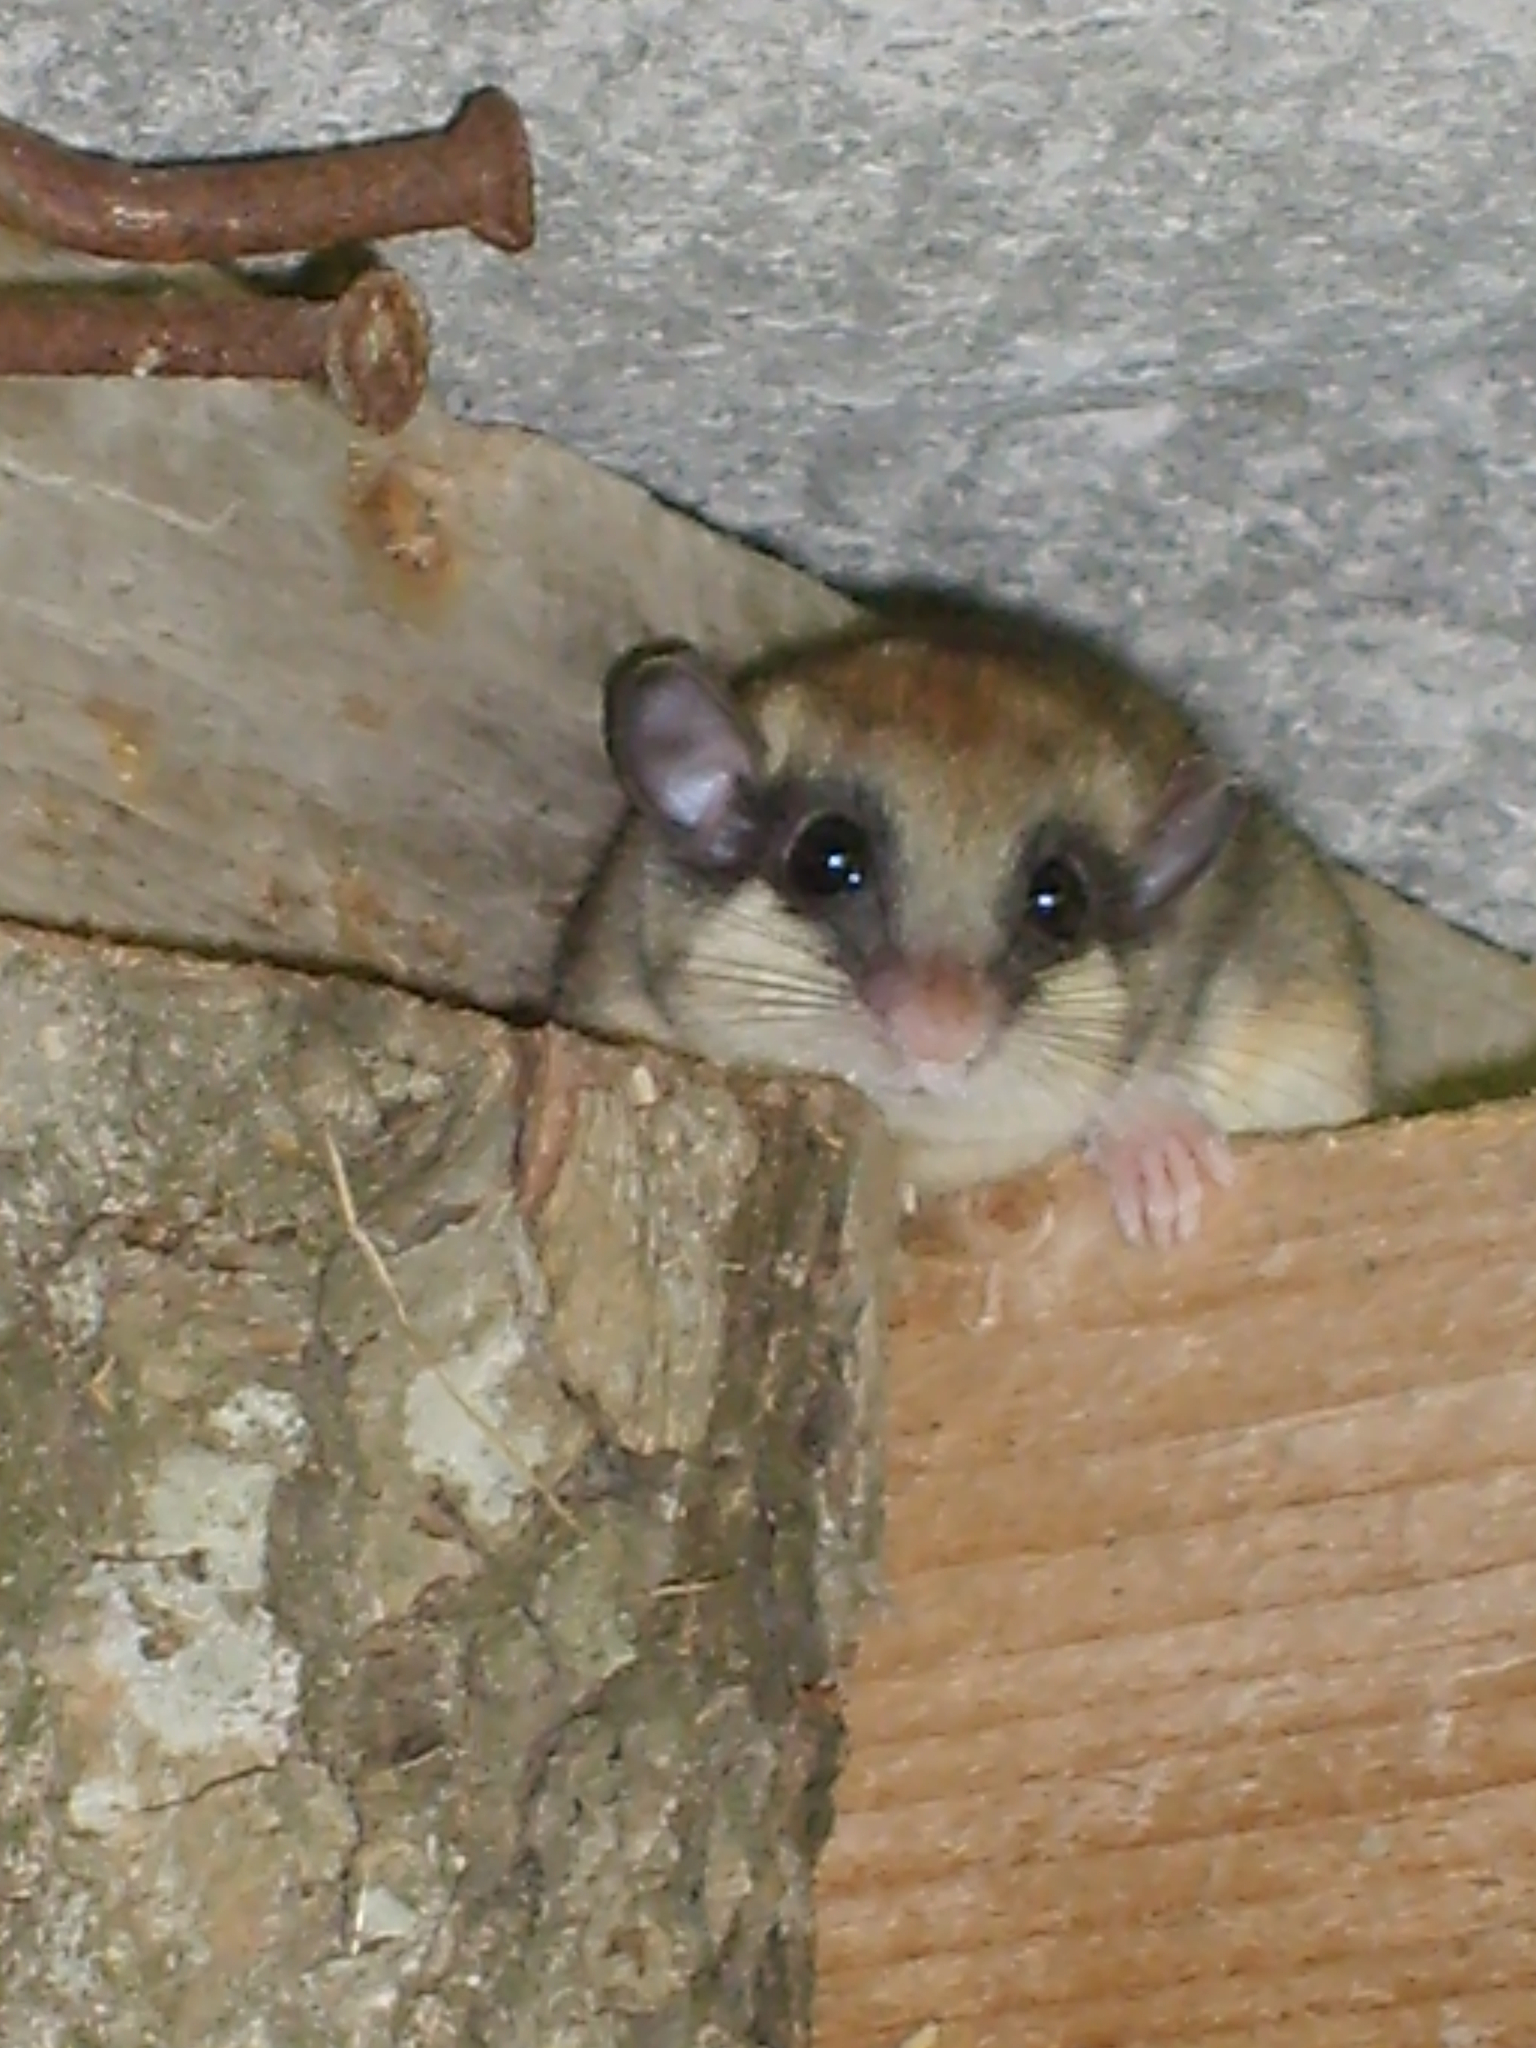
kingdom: Animalia
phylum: Chordata
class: Mammalia
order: Rodentia
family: Gliridae
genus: Dryomys
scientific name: Dryomys nitedula
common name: Forest dormouse
